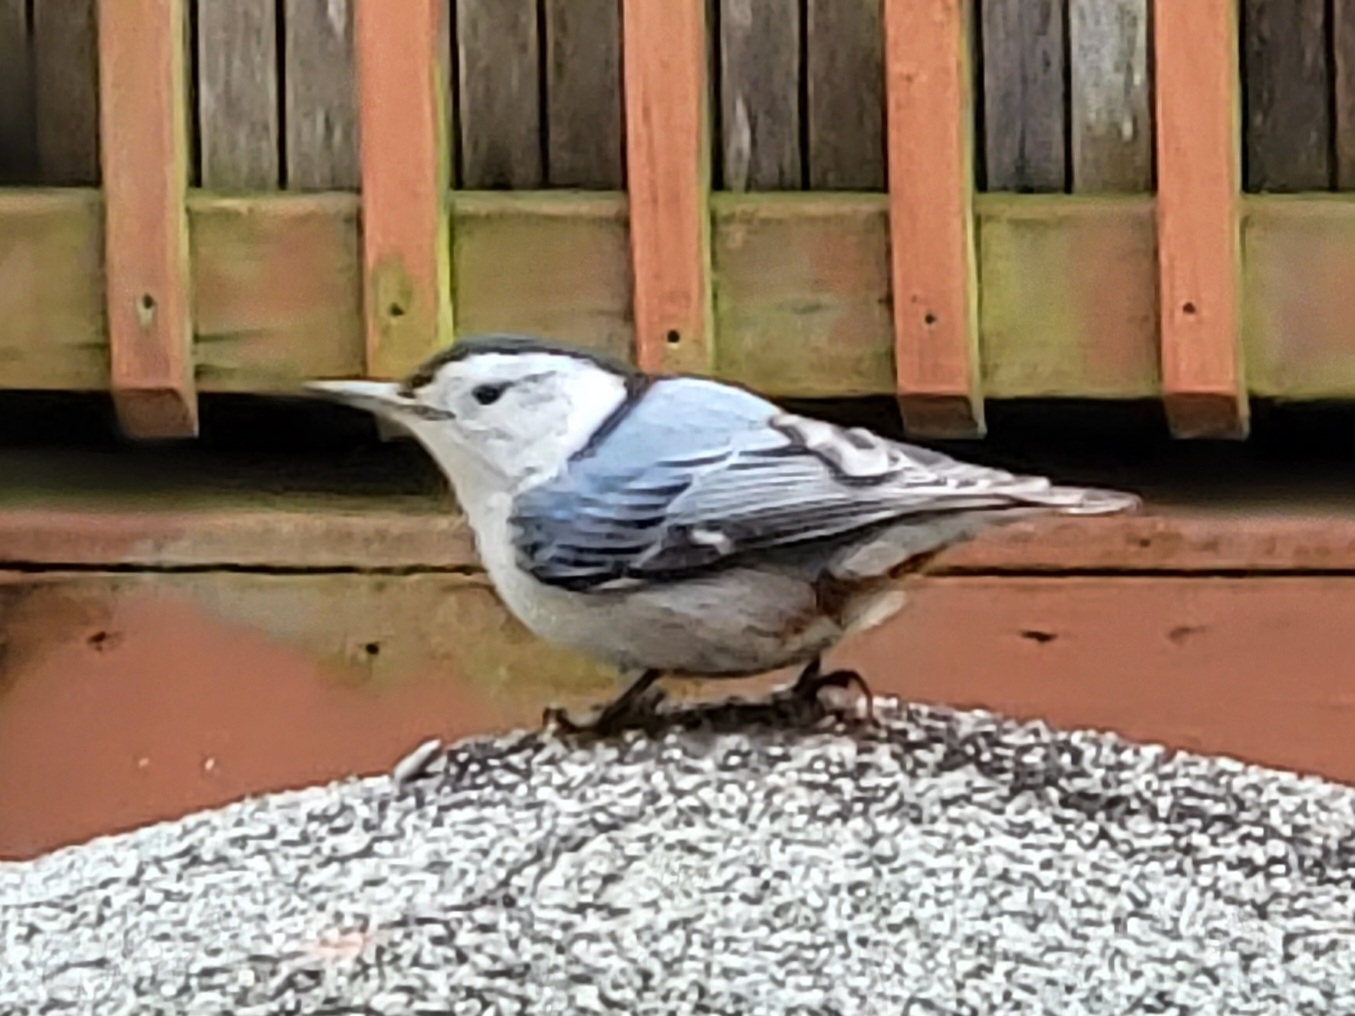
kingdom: Animalia
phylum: Chordata
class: Aves
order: Passeriformes
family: Sittidae
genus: Sitta
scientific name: Sitta carolinensis
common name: White-breasted nuthatch
